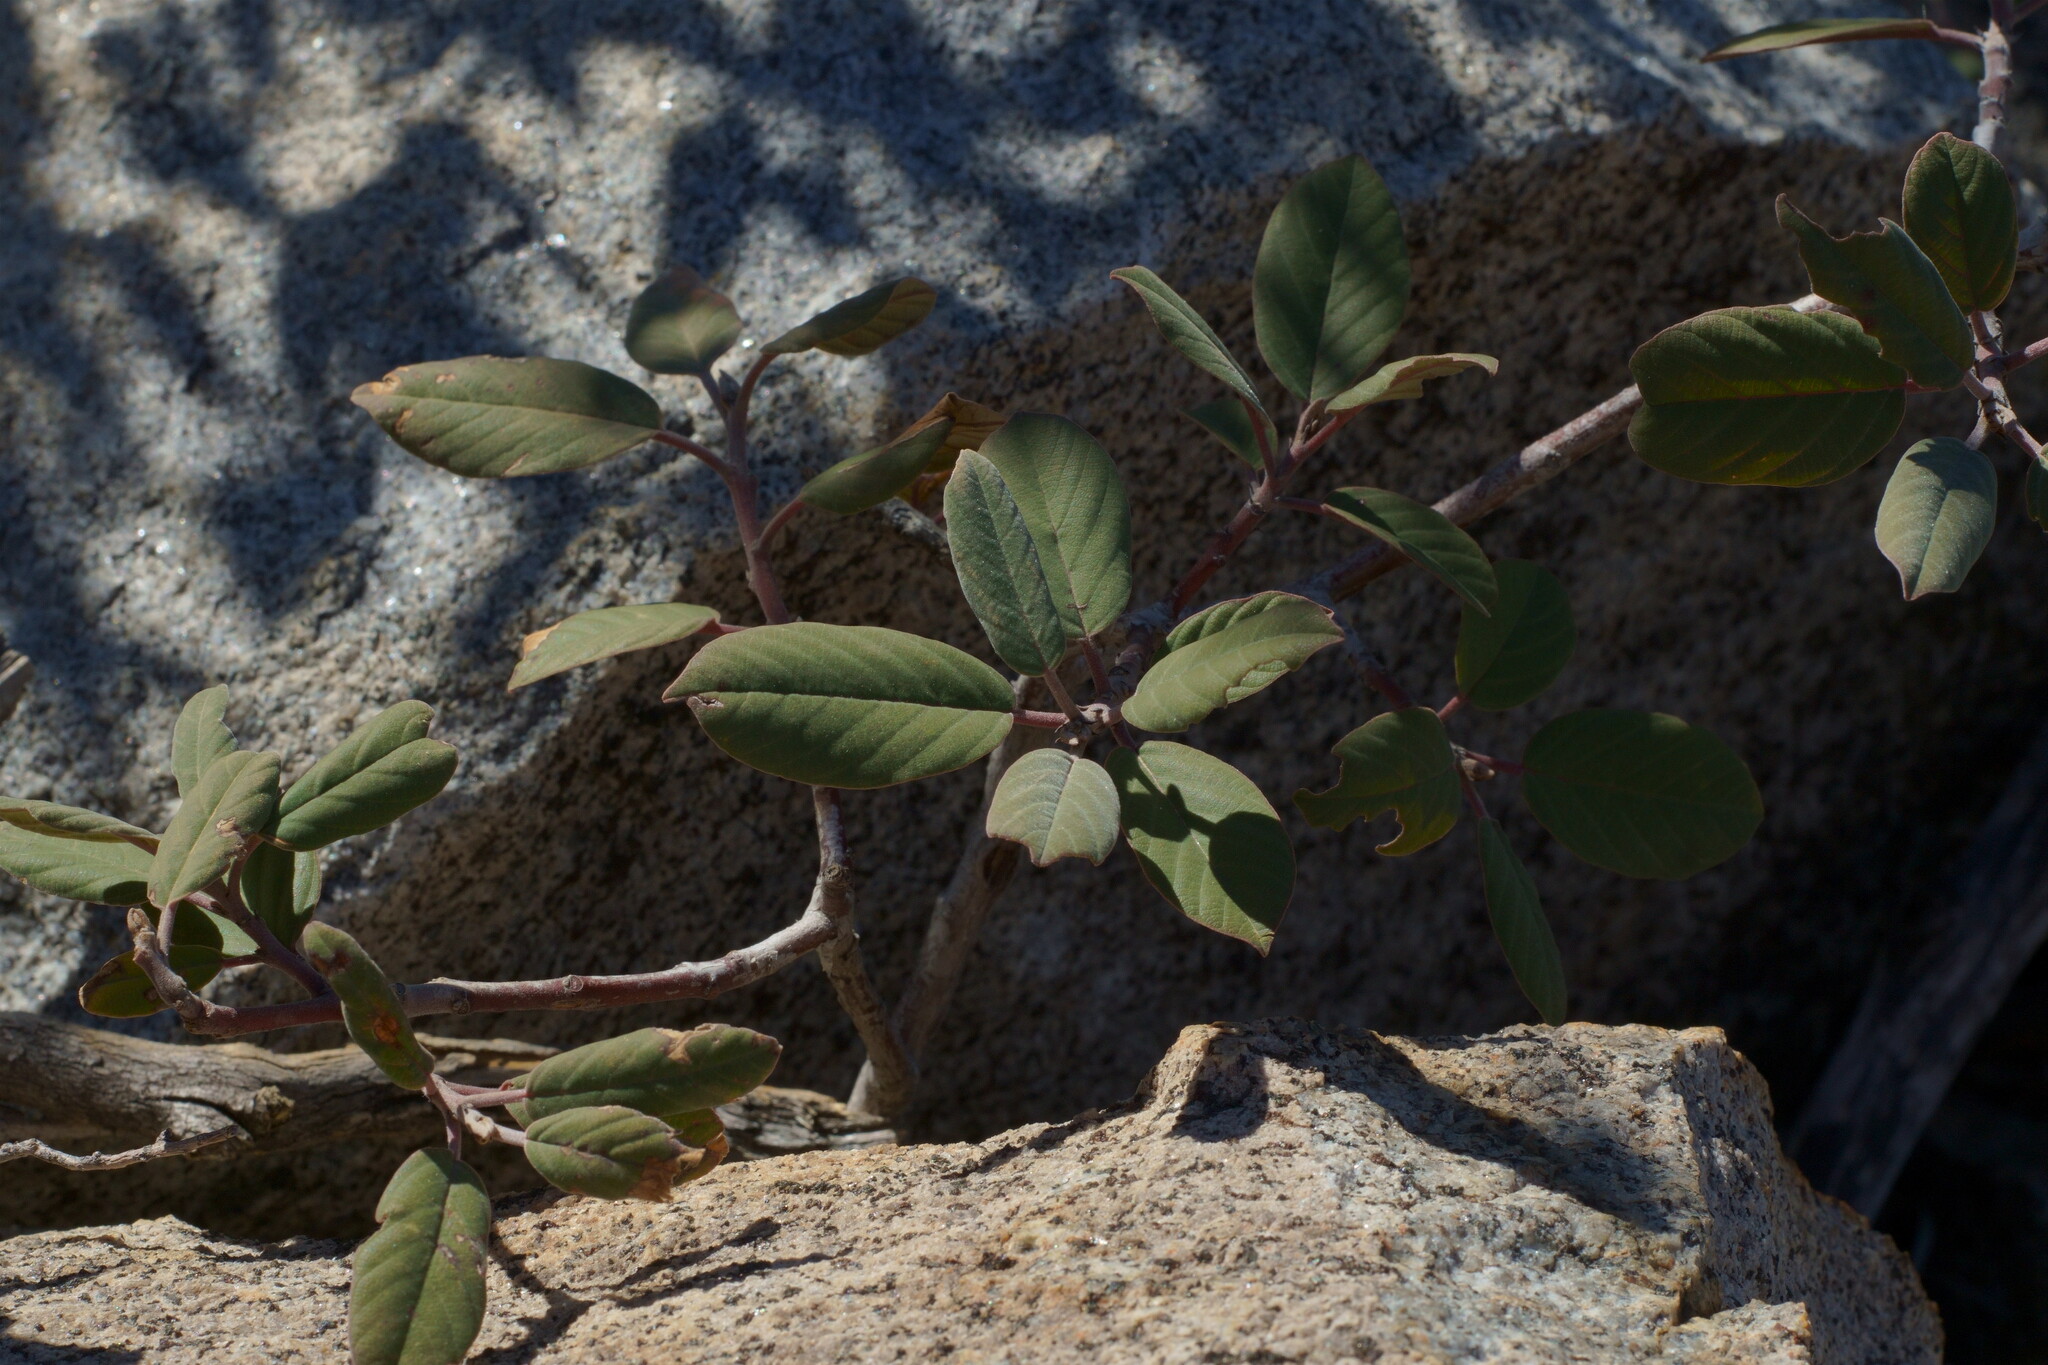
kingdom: Plantae
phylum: Tracheophyta
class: Magnoliopsida
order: Rosales
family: Rhamnaceae
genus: Frangula
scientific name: Frangula californica
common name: California buckthorn
